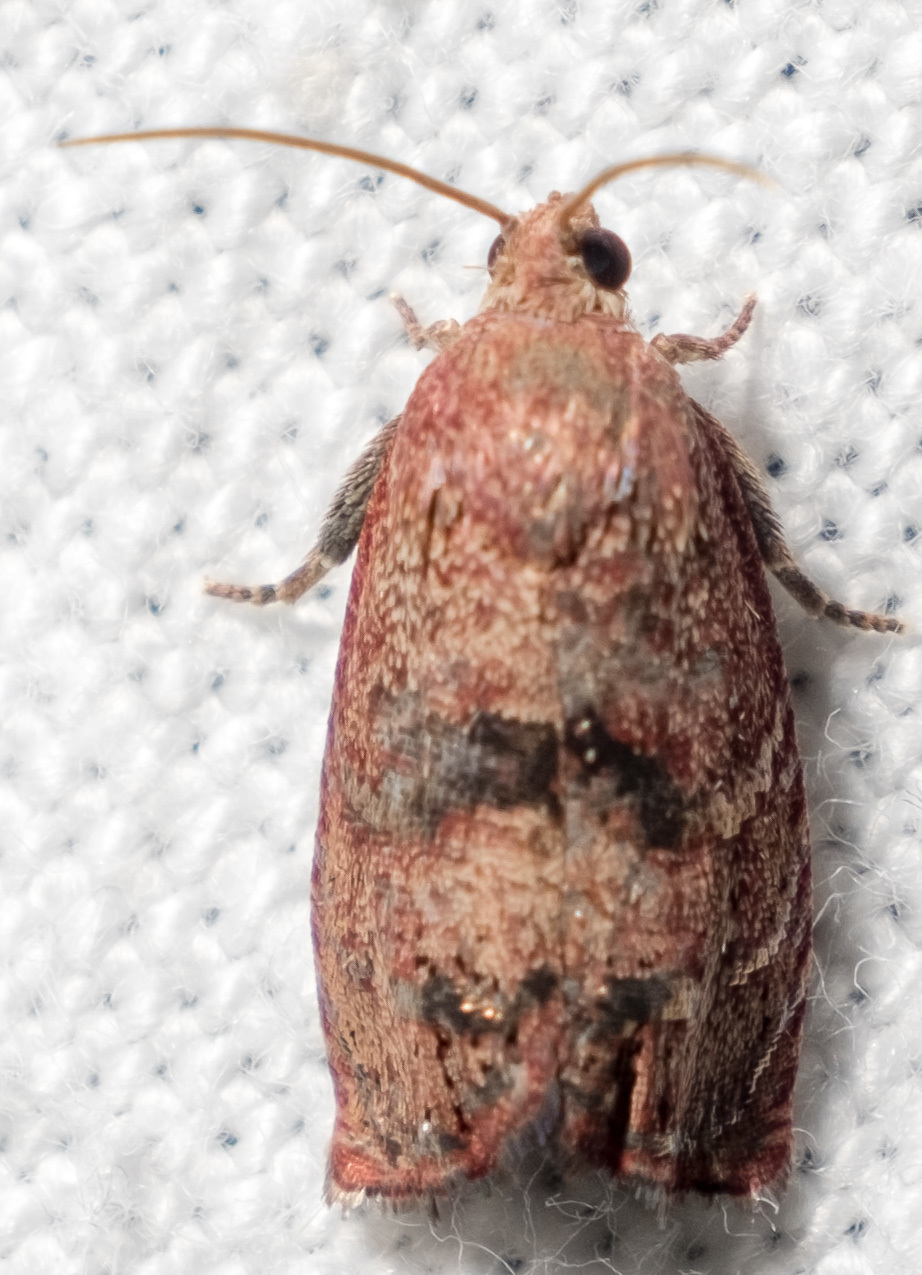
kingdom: Animalia
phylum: Arthropoda
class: Insecta
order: Lepidoptera
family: Tortricidae
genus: Cydia
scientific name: Cydia latiferreana
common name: Filbertworm moth
